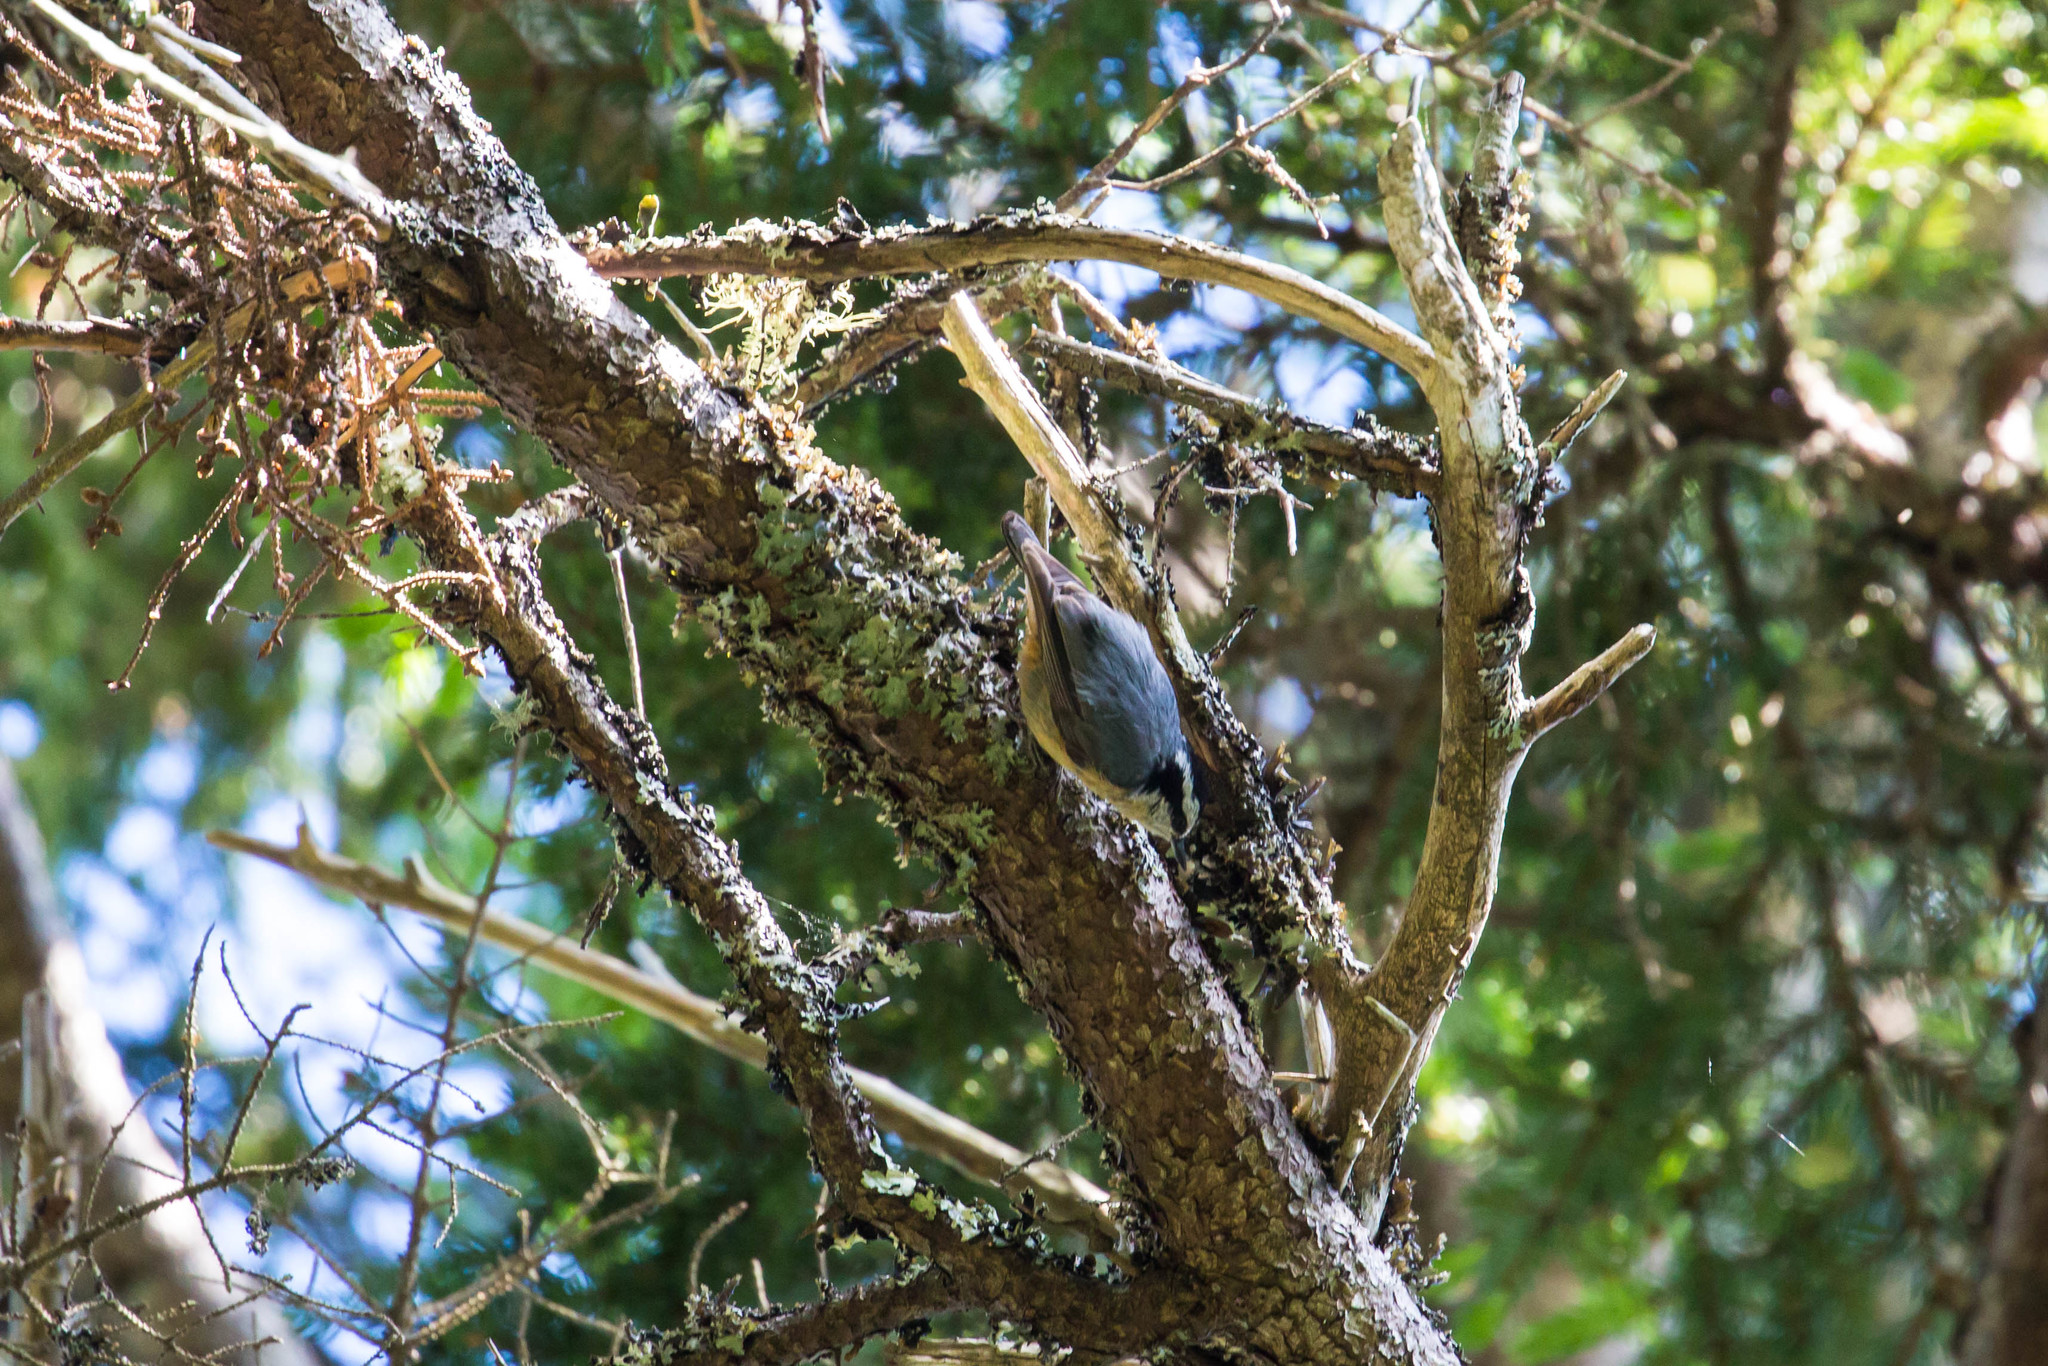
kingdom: Animalia
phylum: Chordata
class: Aves
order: Passeriformes
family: Sittidae
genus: Sitta
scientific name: Sitta canadensis
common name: Red-breasted nuthatch
